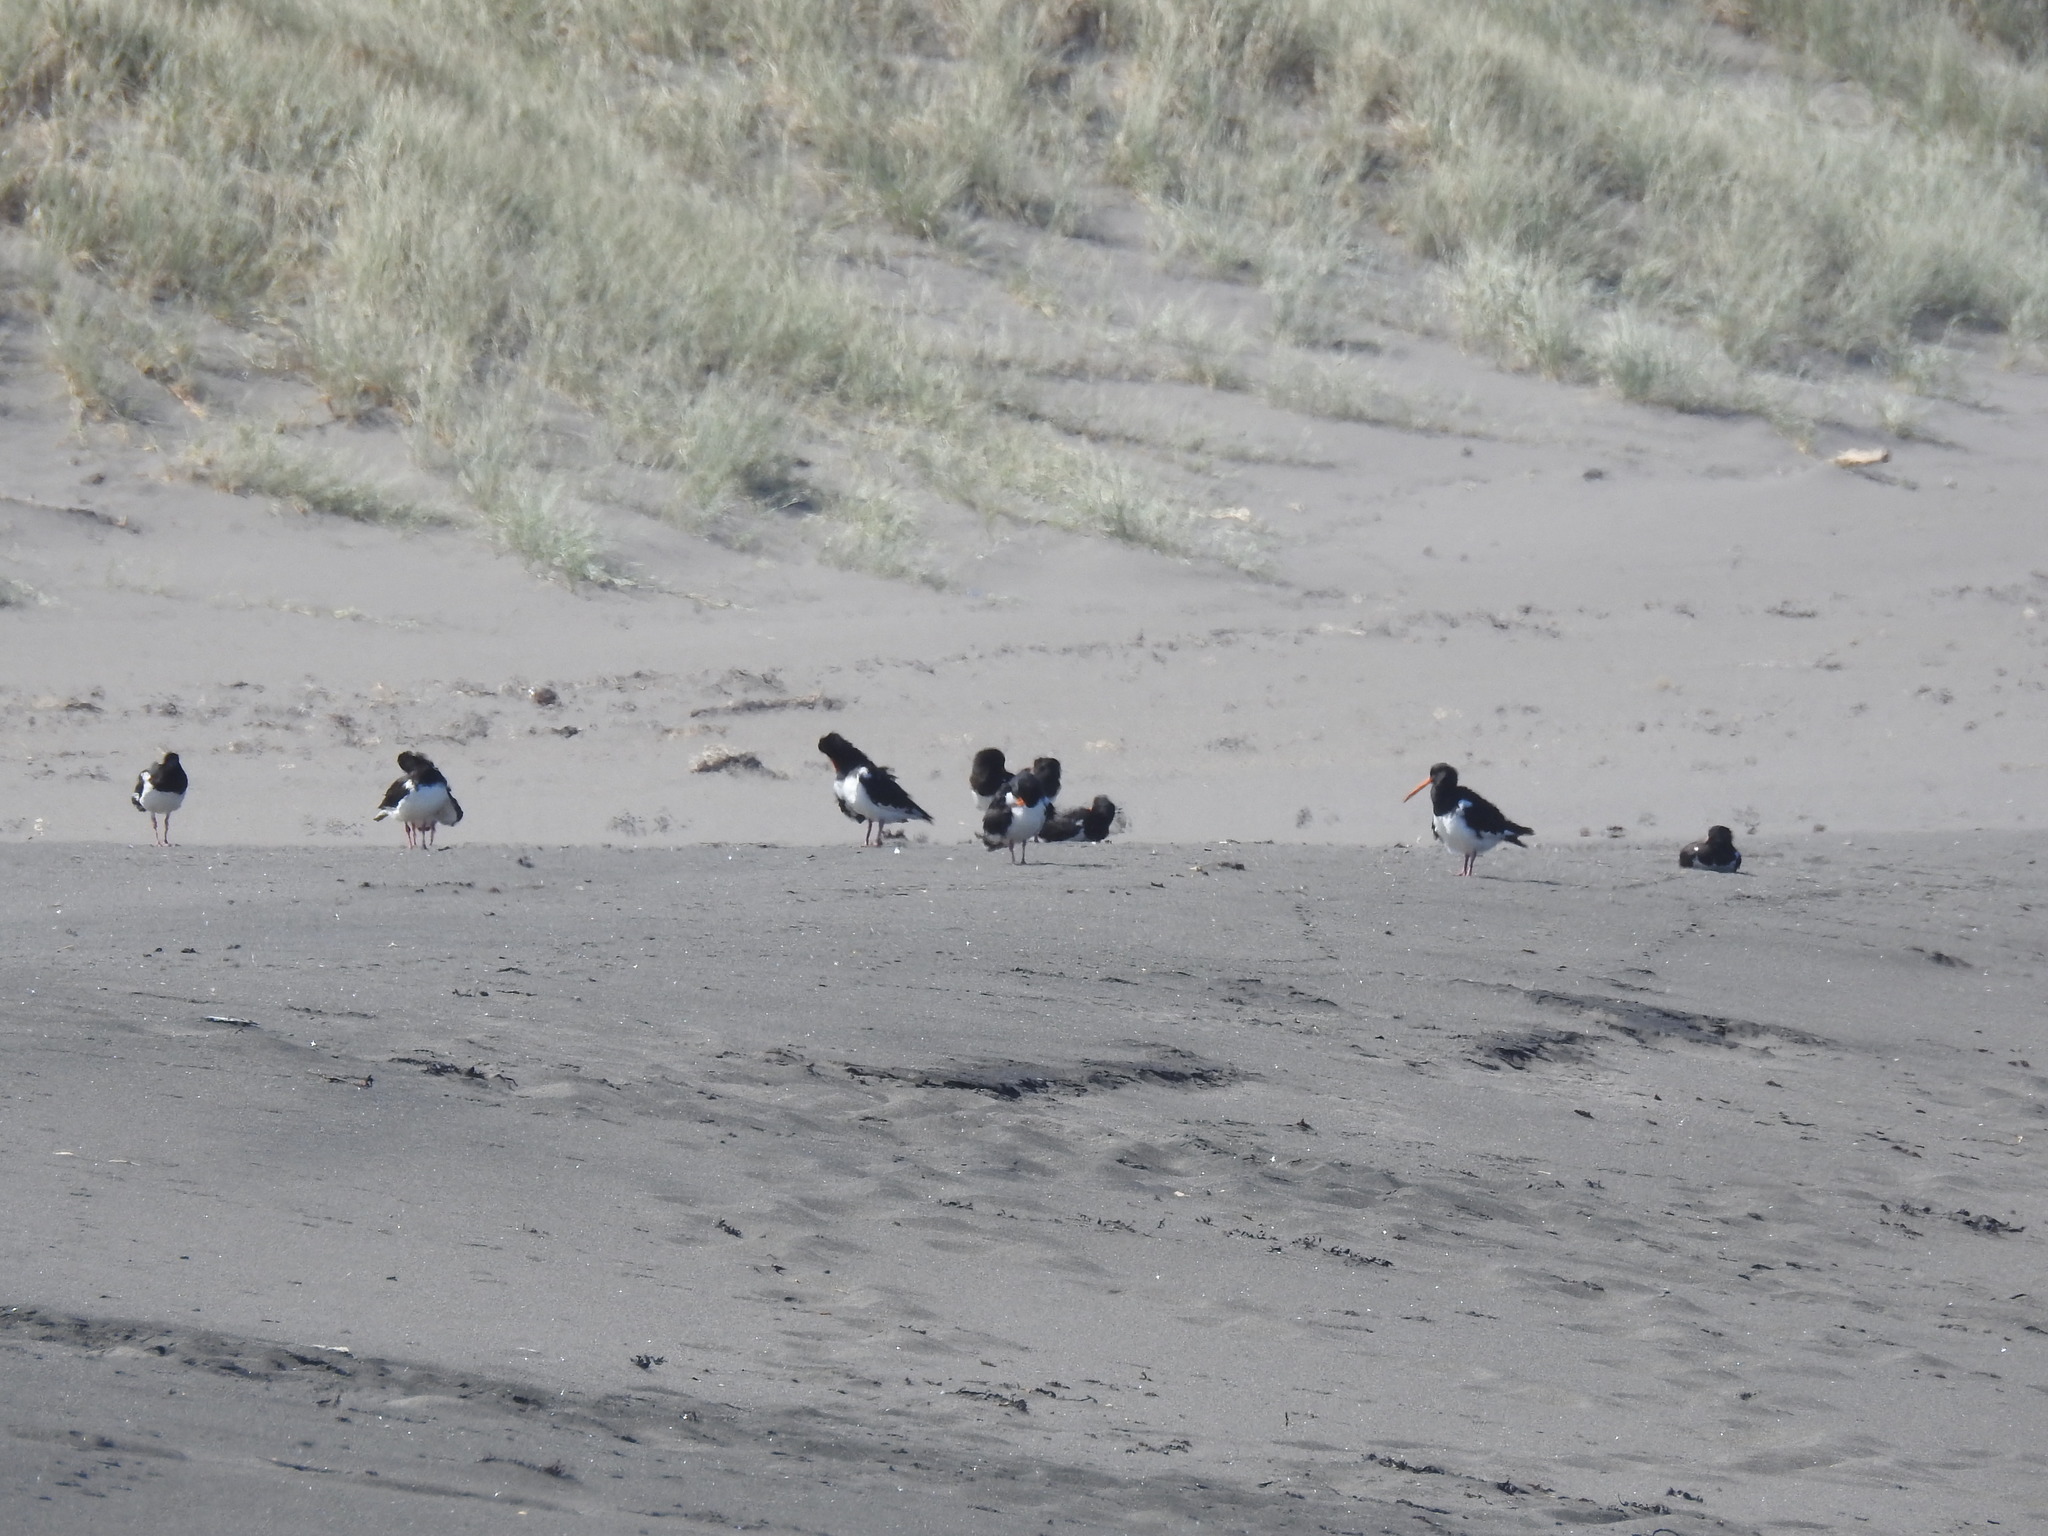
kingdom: Animalia
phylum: Chordata
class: Aves
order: Charadriiformes
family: Haematopodidae
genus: Haematopus
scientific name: Haematopus finschi
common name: South island oystercatcher
